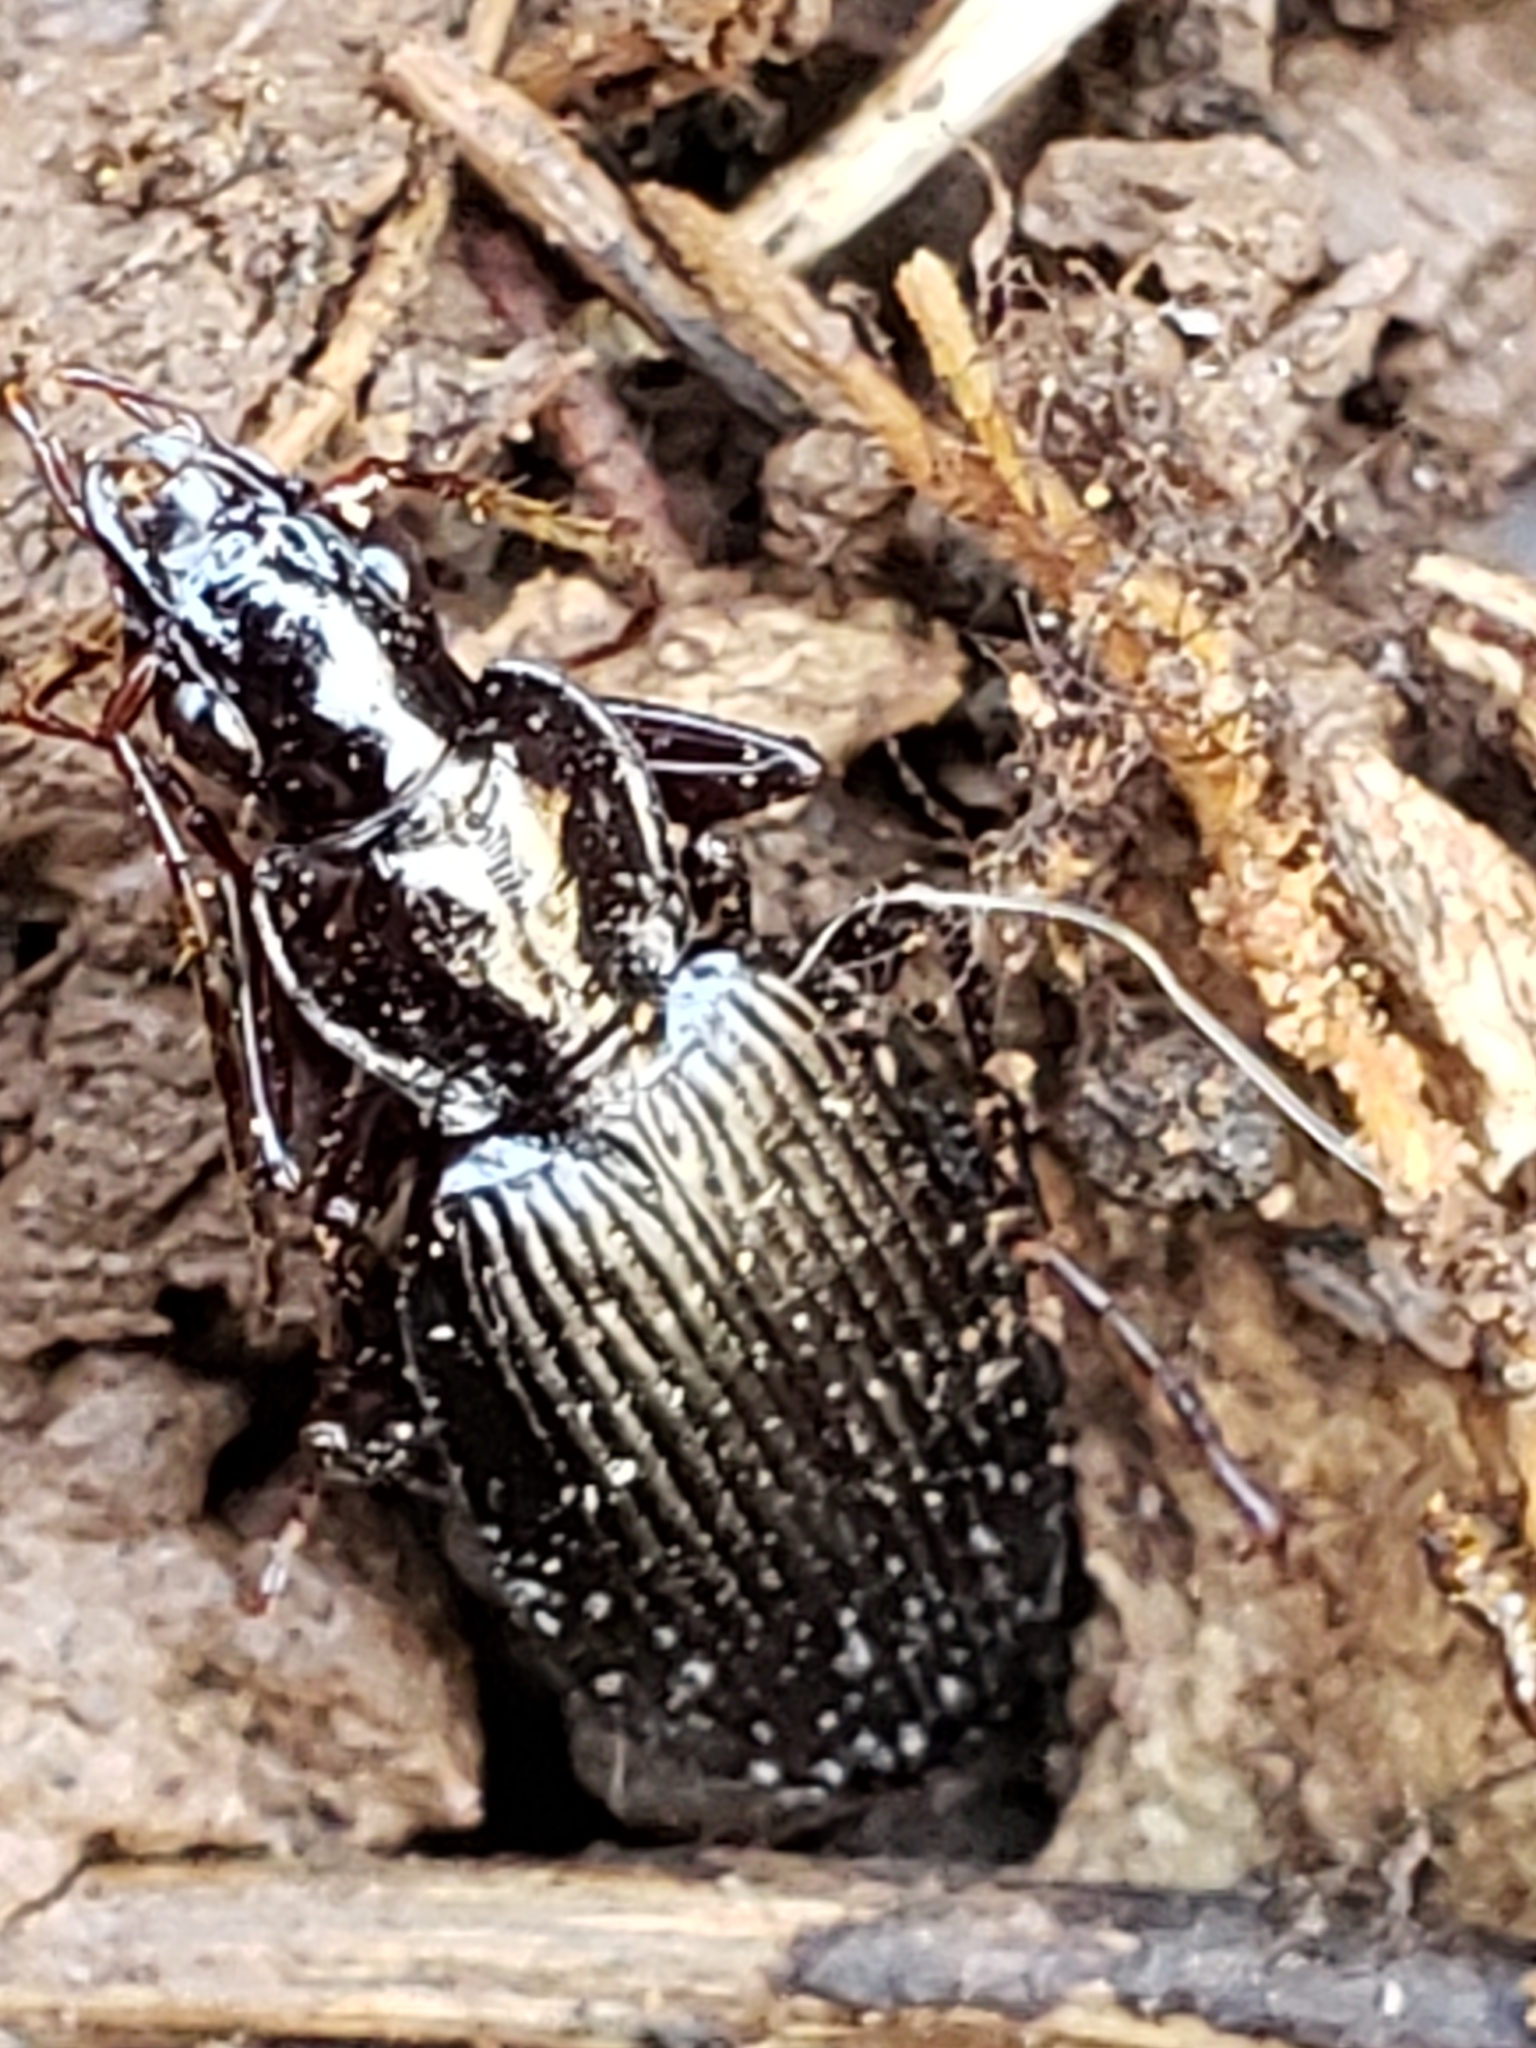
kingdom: Animalia
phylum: Arthropoda
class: Insecta
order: Coleoptera
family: Carabidae
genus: Platynus
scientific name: Platynus decentis
